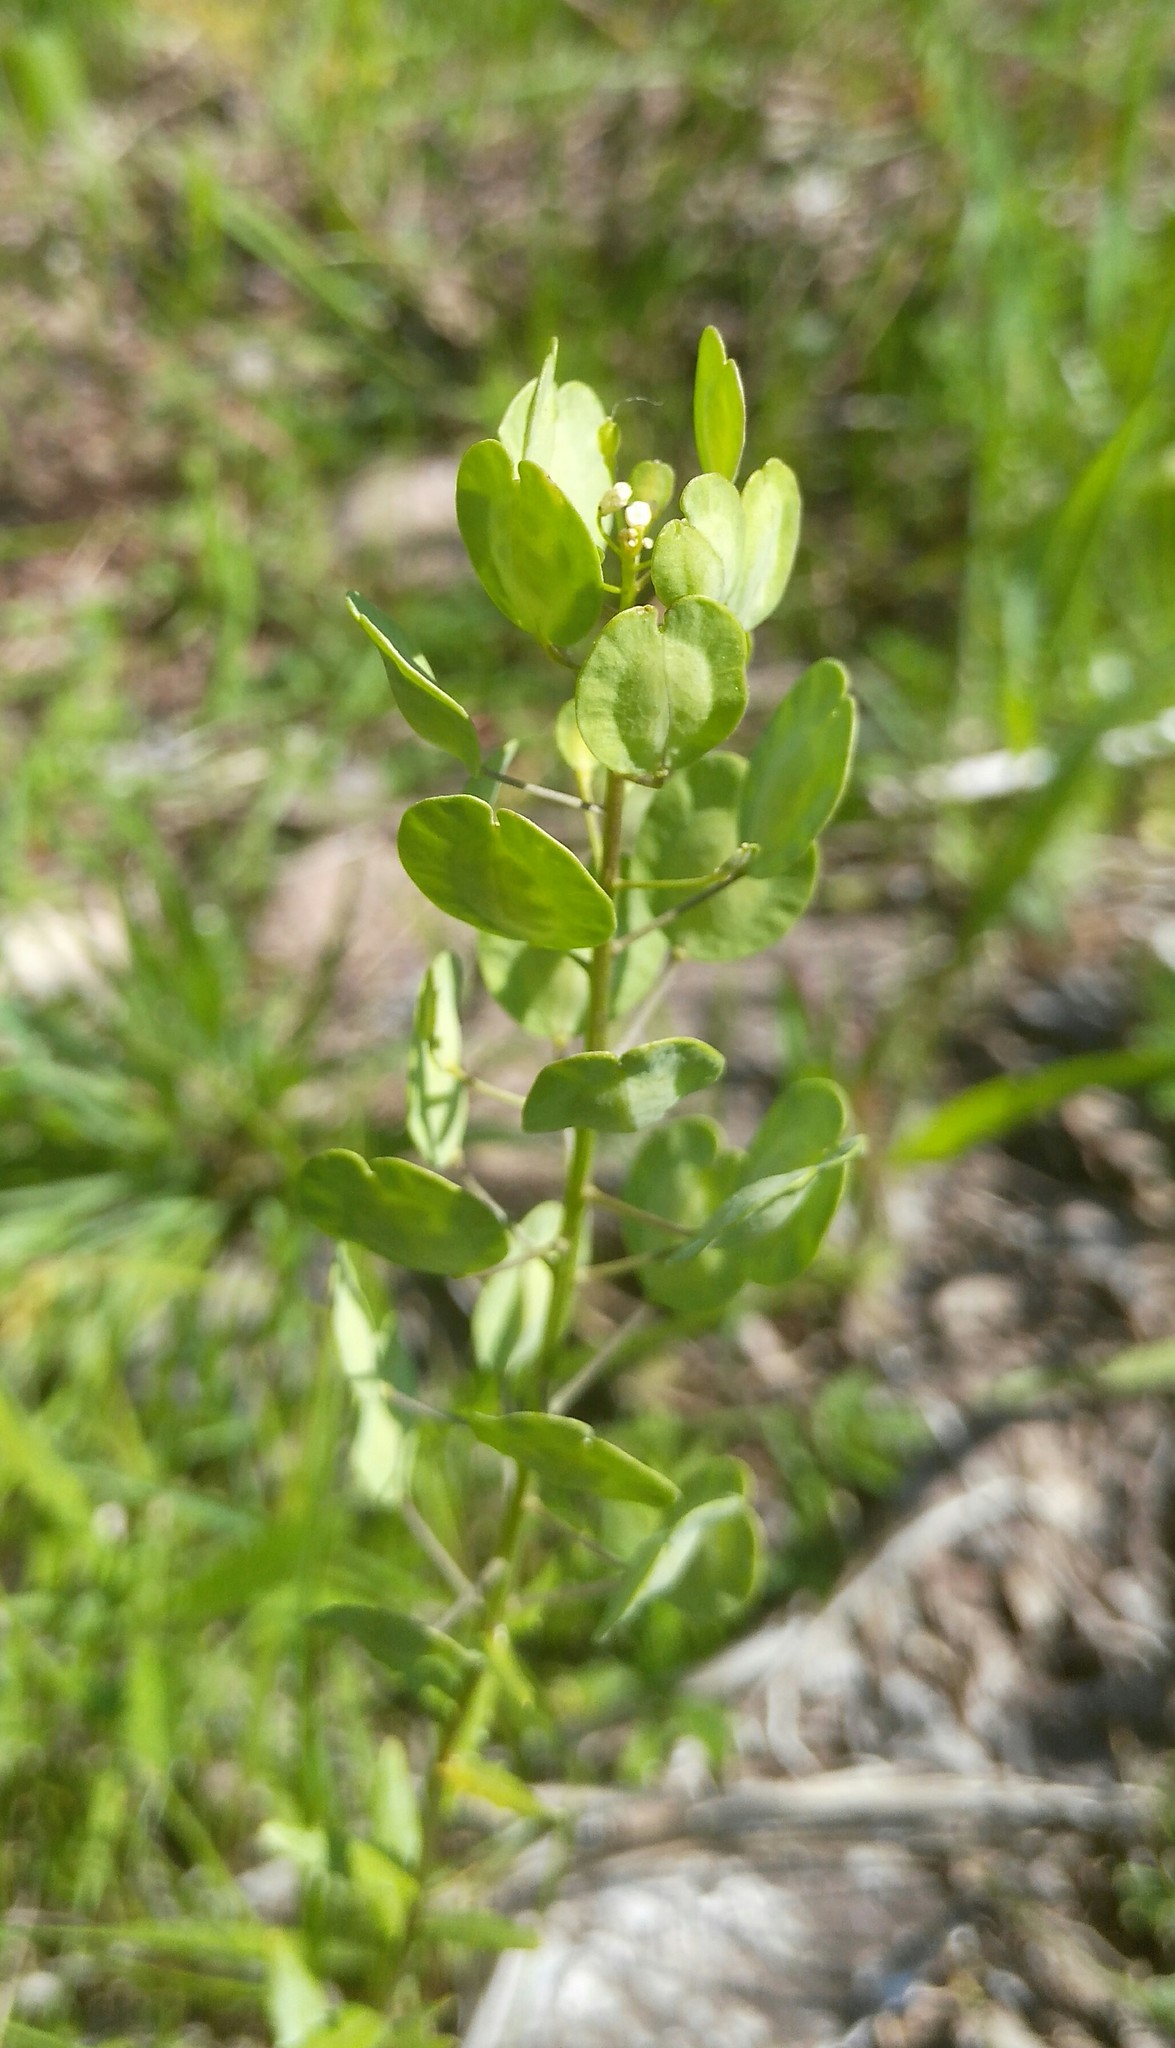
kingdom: Plantae
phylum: Tracheophyta
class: Magnoliopsida
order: Brassicales
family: Brassicaceae
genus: Thlaspi
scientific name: Thlaspi arvense
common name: Field pennycress
